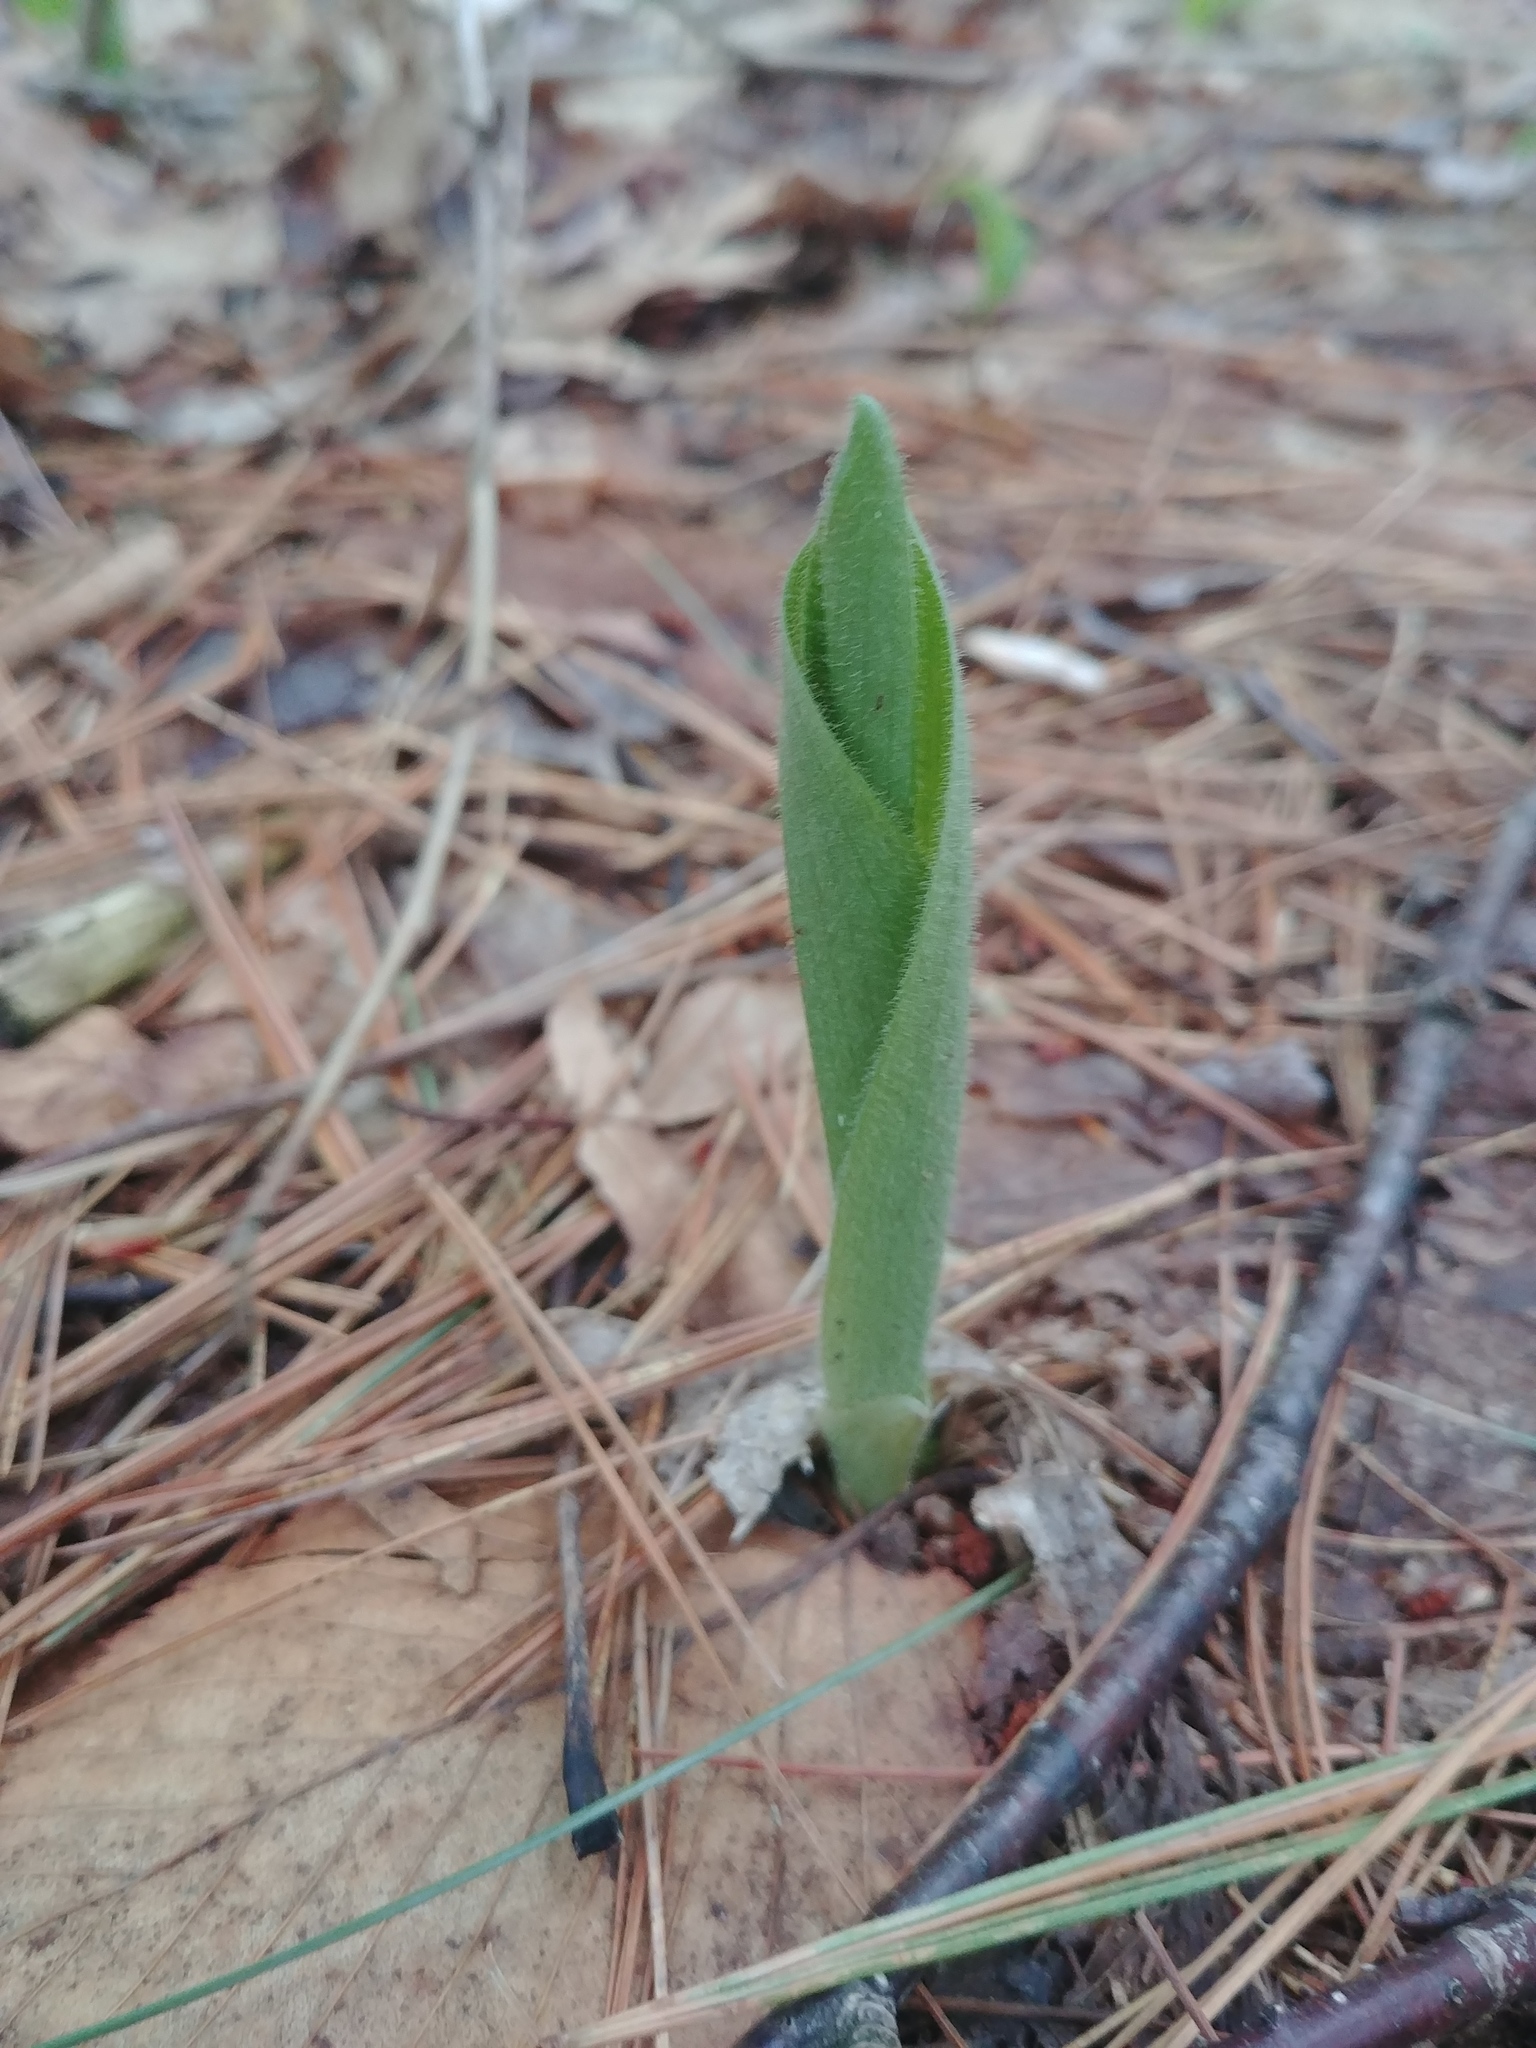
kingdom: Plantae
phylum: Tracheophyta
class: Liliopsida
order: Asparagales
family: Orchidaceae
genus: Cypripedium
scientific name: Cypripedium acaule
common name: Pink lady's-slipper
